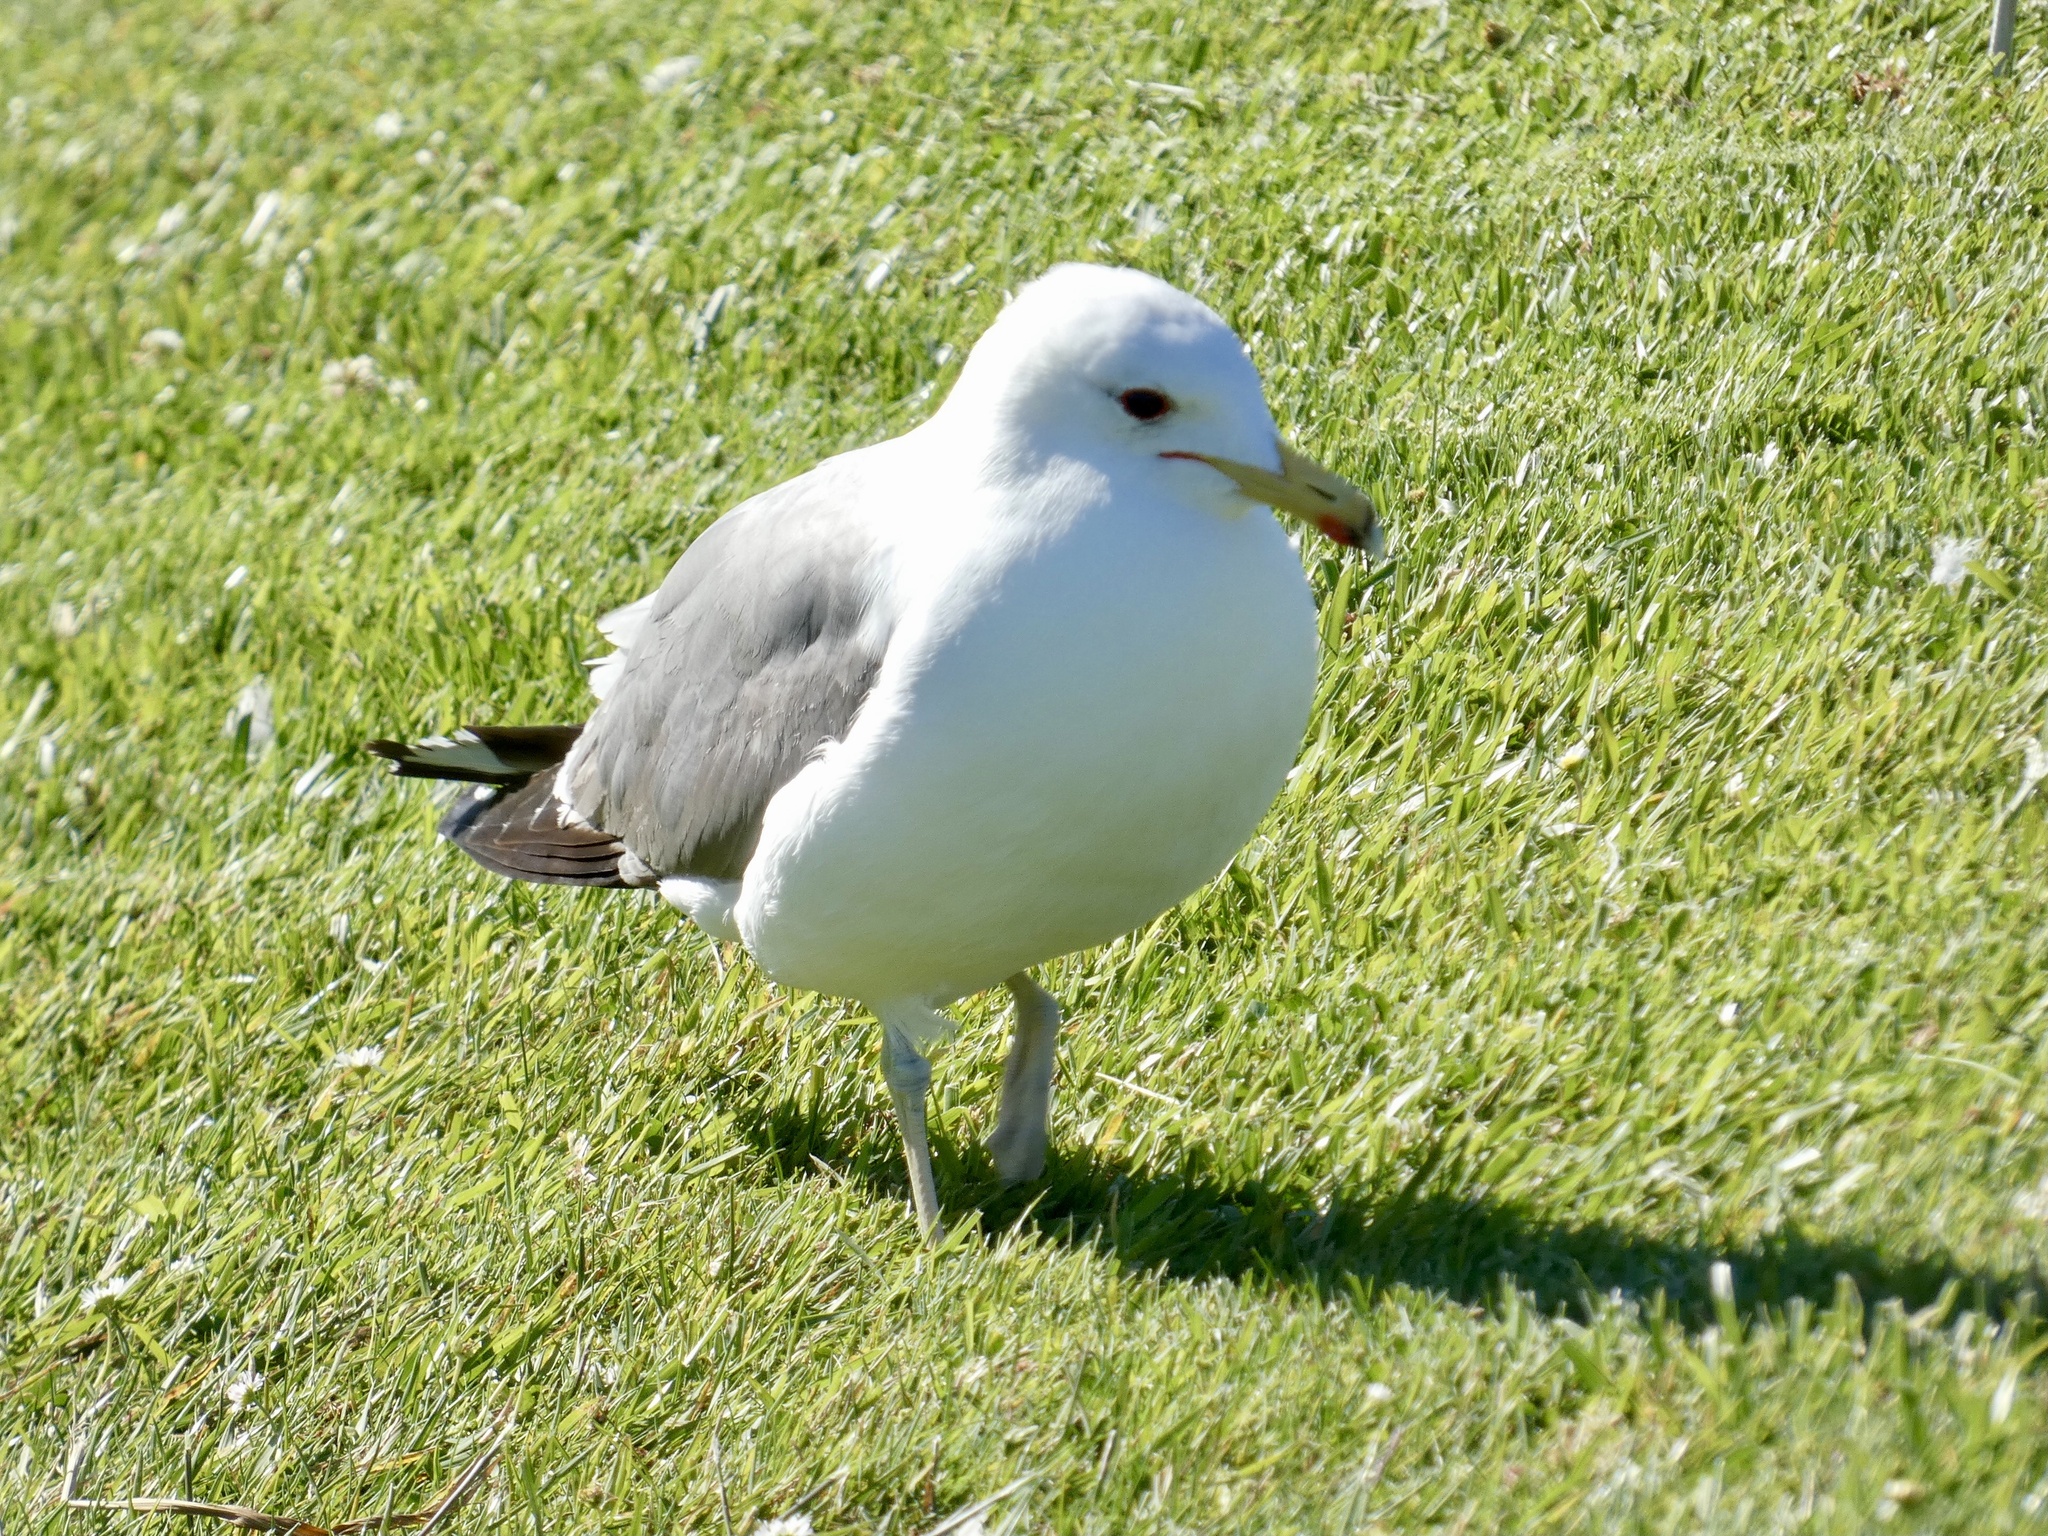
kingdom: Animalia
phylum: Chordata
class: Aves
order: Charadriiformes
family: Laridae
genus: Larus
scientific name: Larus californicus
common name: California gull
